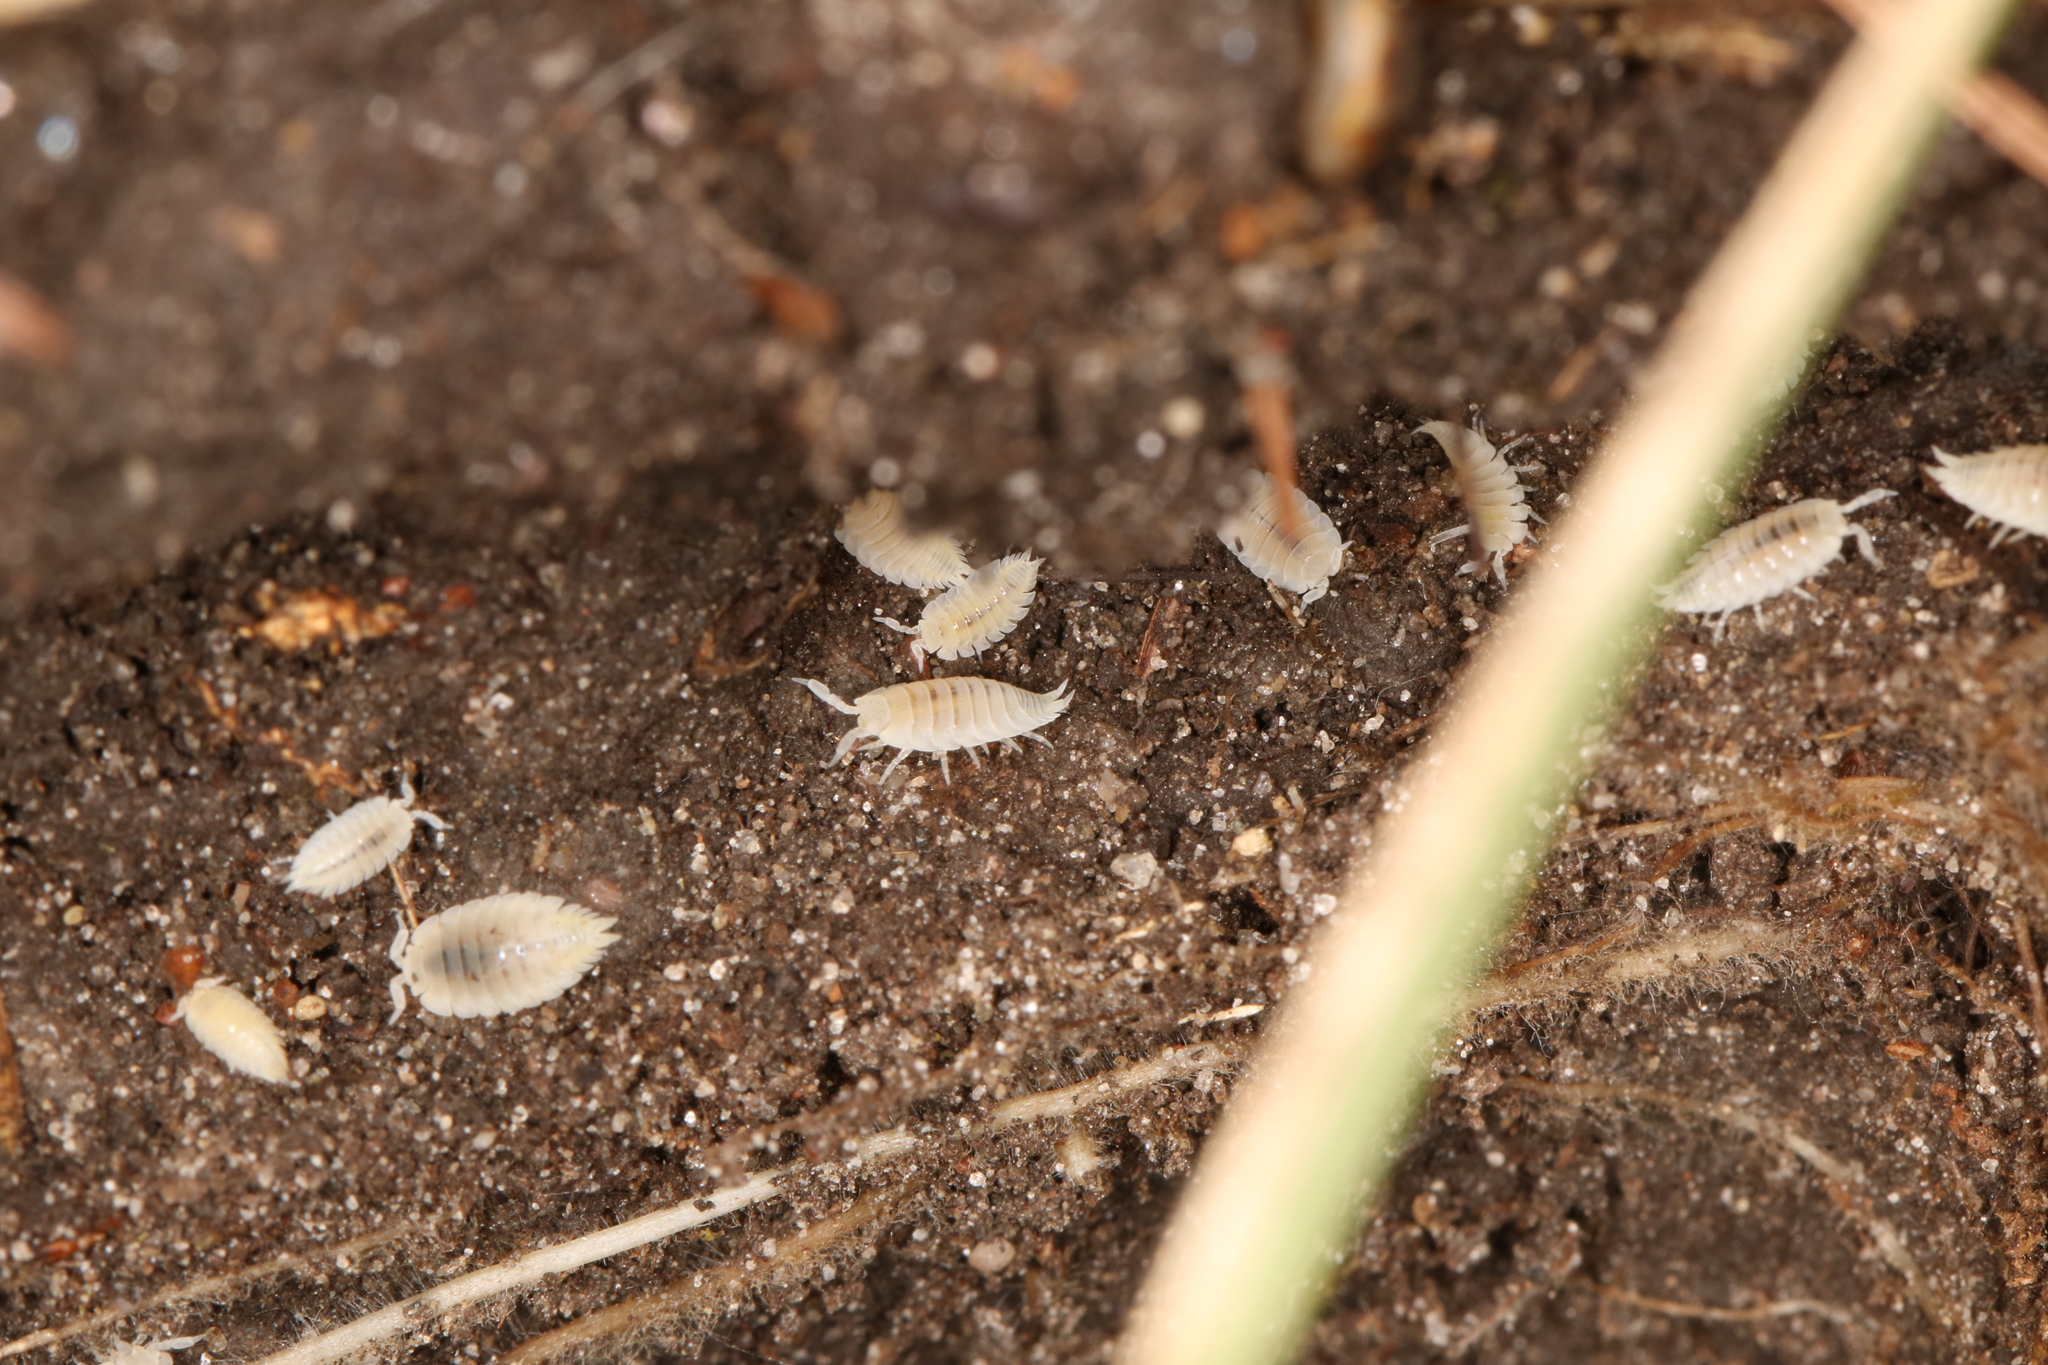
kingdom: Animalia
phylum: Arthropoda
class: Malacostraca
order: Isopoda
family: Platyarthridae
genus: Platyarthrus
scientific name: Platyarthrus hoffmannseggii
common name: Ant woodlouse
